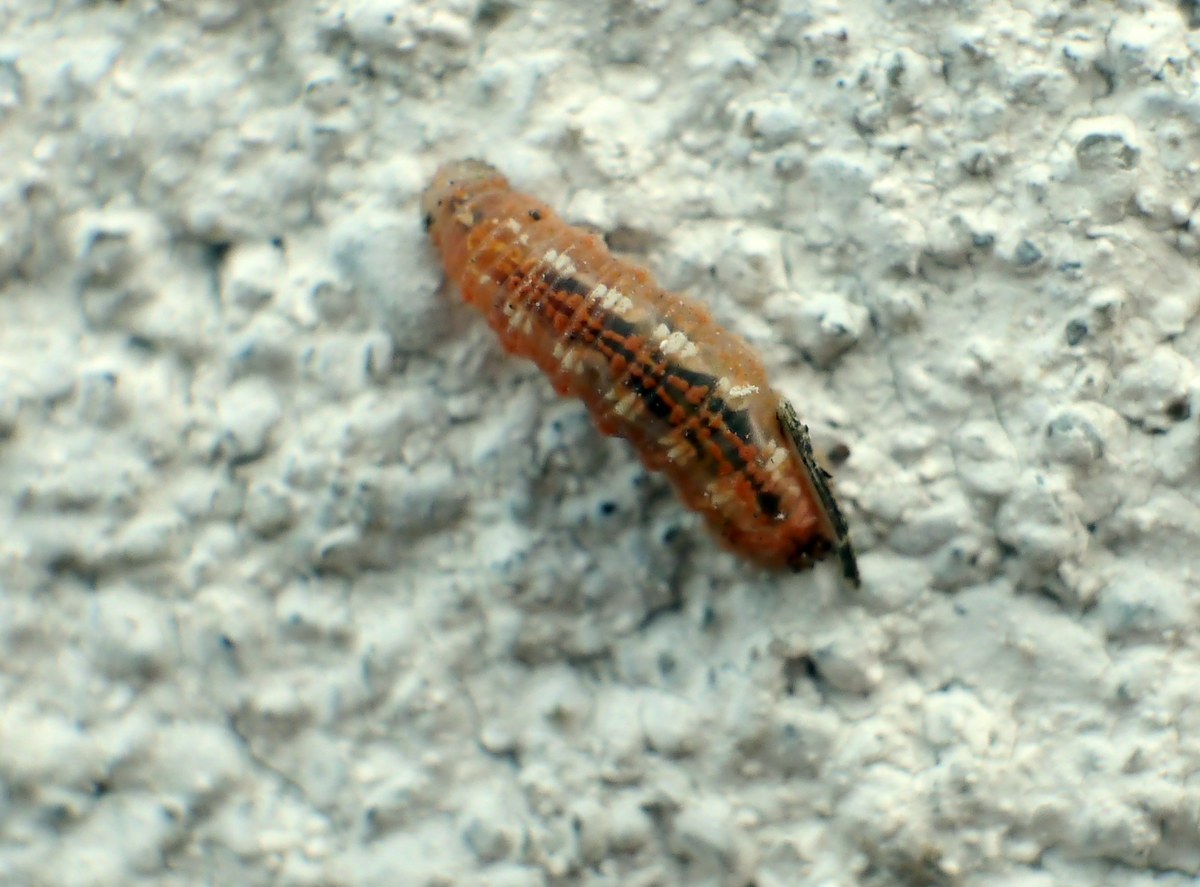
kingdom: Animalia
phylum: Arthropoda
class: Insecta
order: Diptera
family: Syrphidae
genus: Syrphus
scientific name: Syrphus
